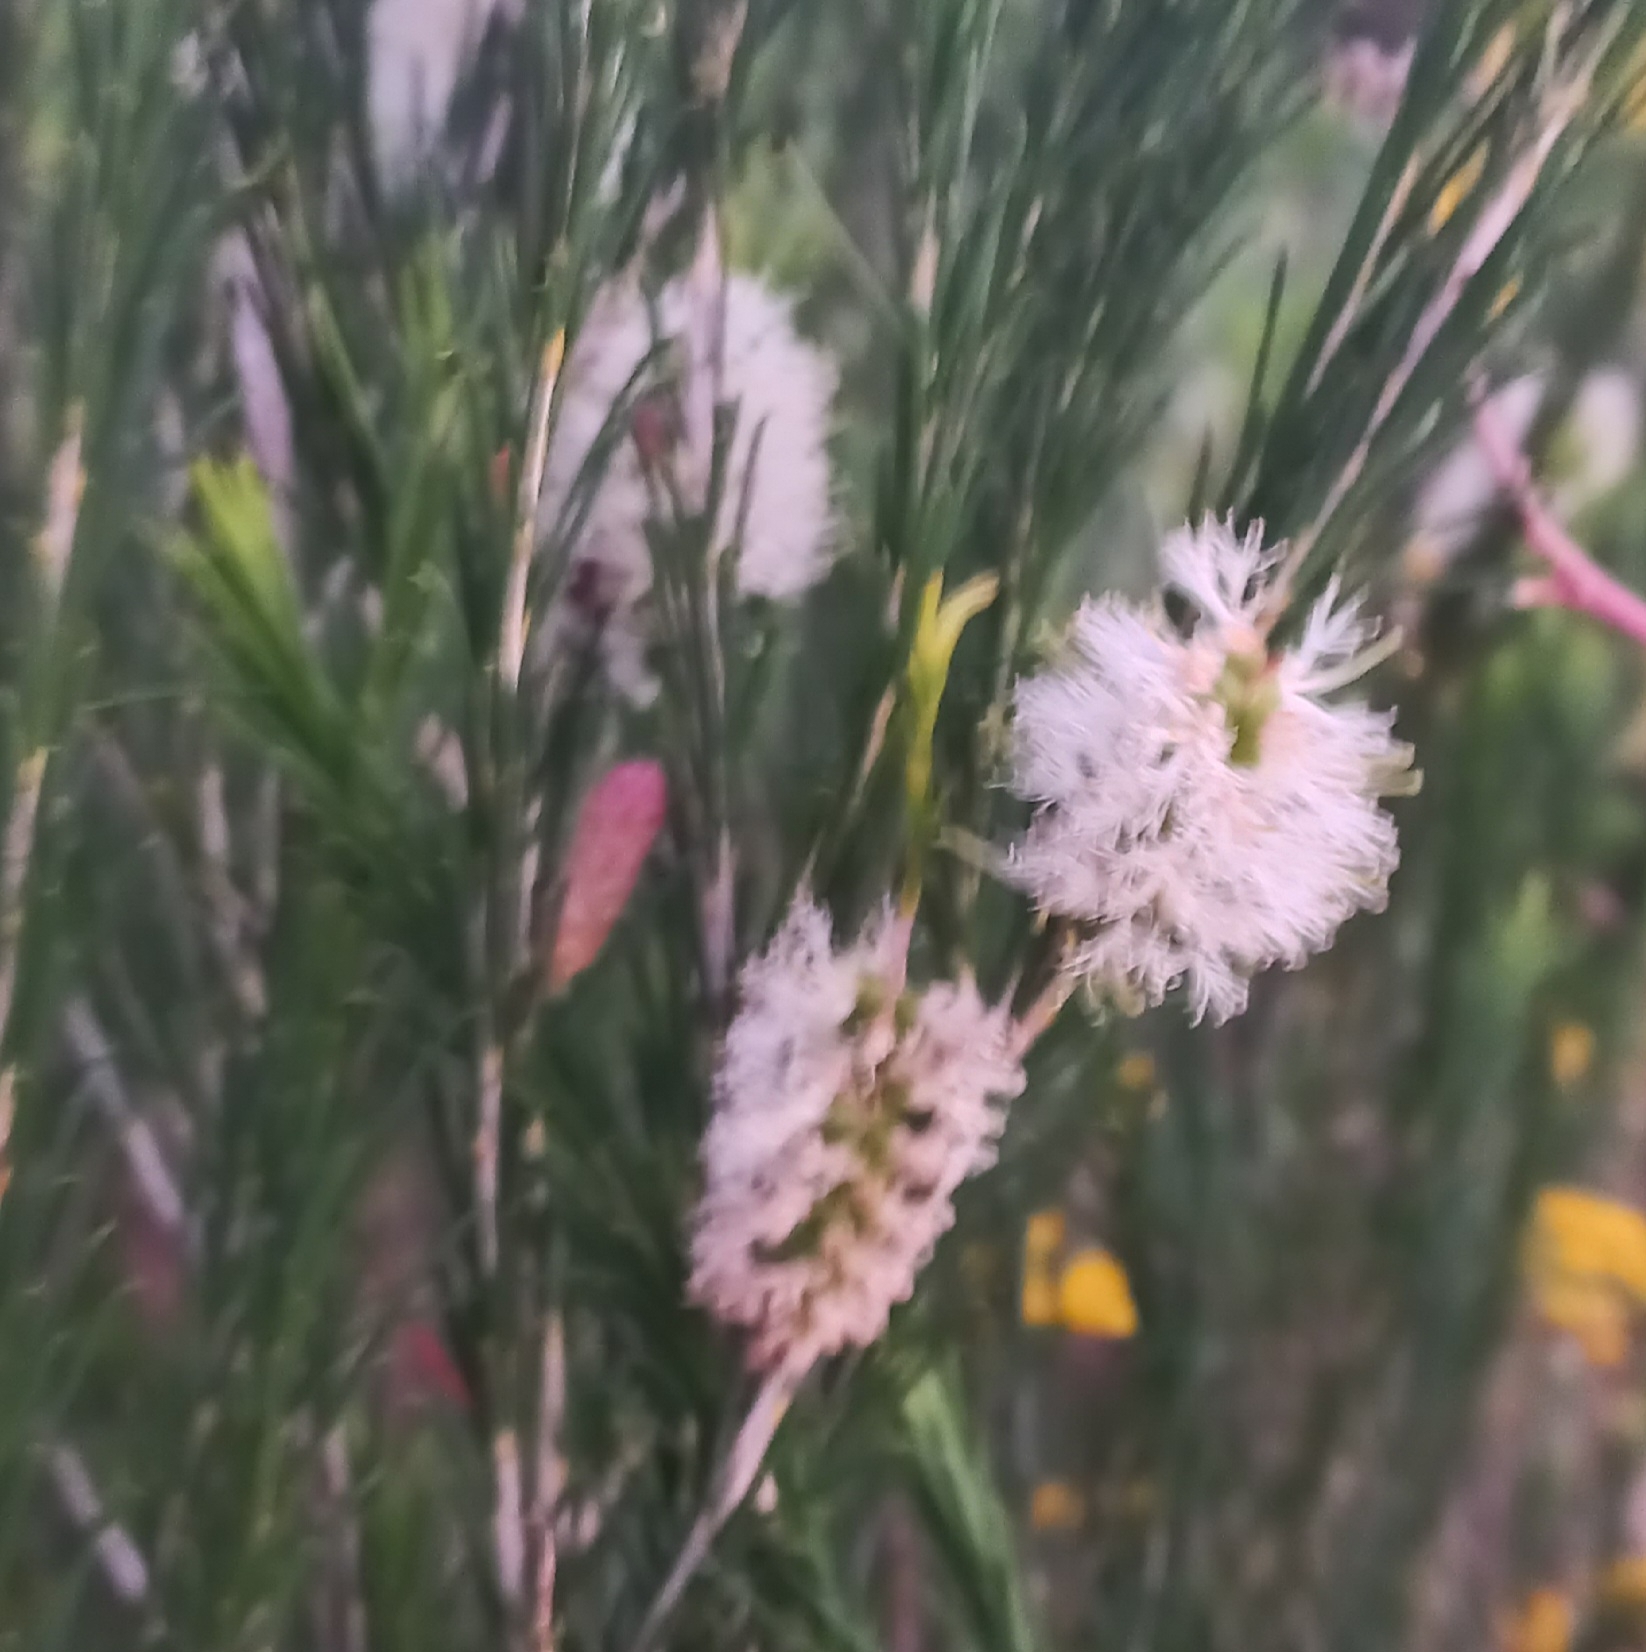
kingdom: Plantae
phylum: Tracheophyta
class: Magnoliopsida
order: Myrtales
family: Myrtaceae
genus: Melaleuca
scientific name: Melaleuca armillaris
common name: Bracelet honey myrtle
